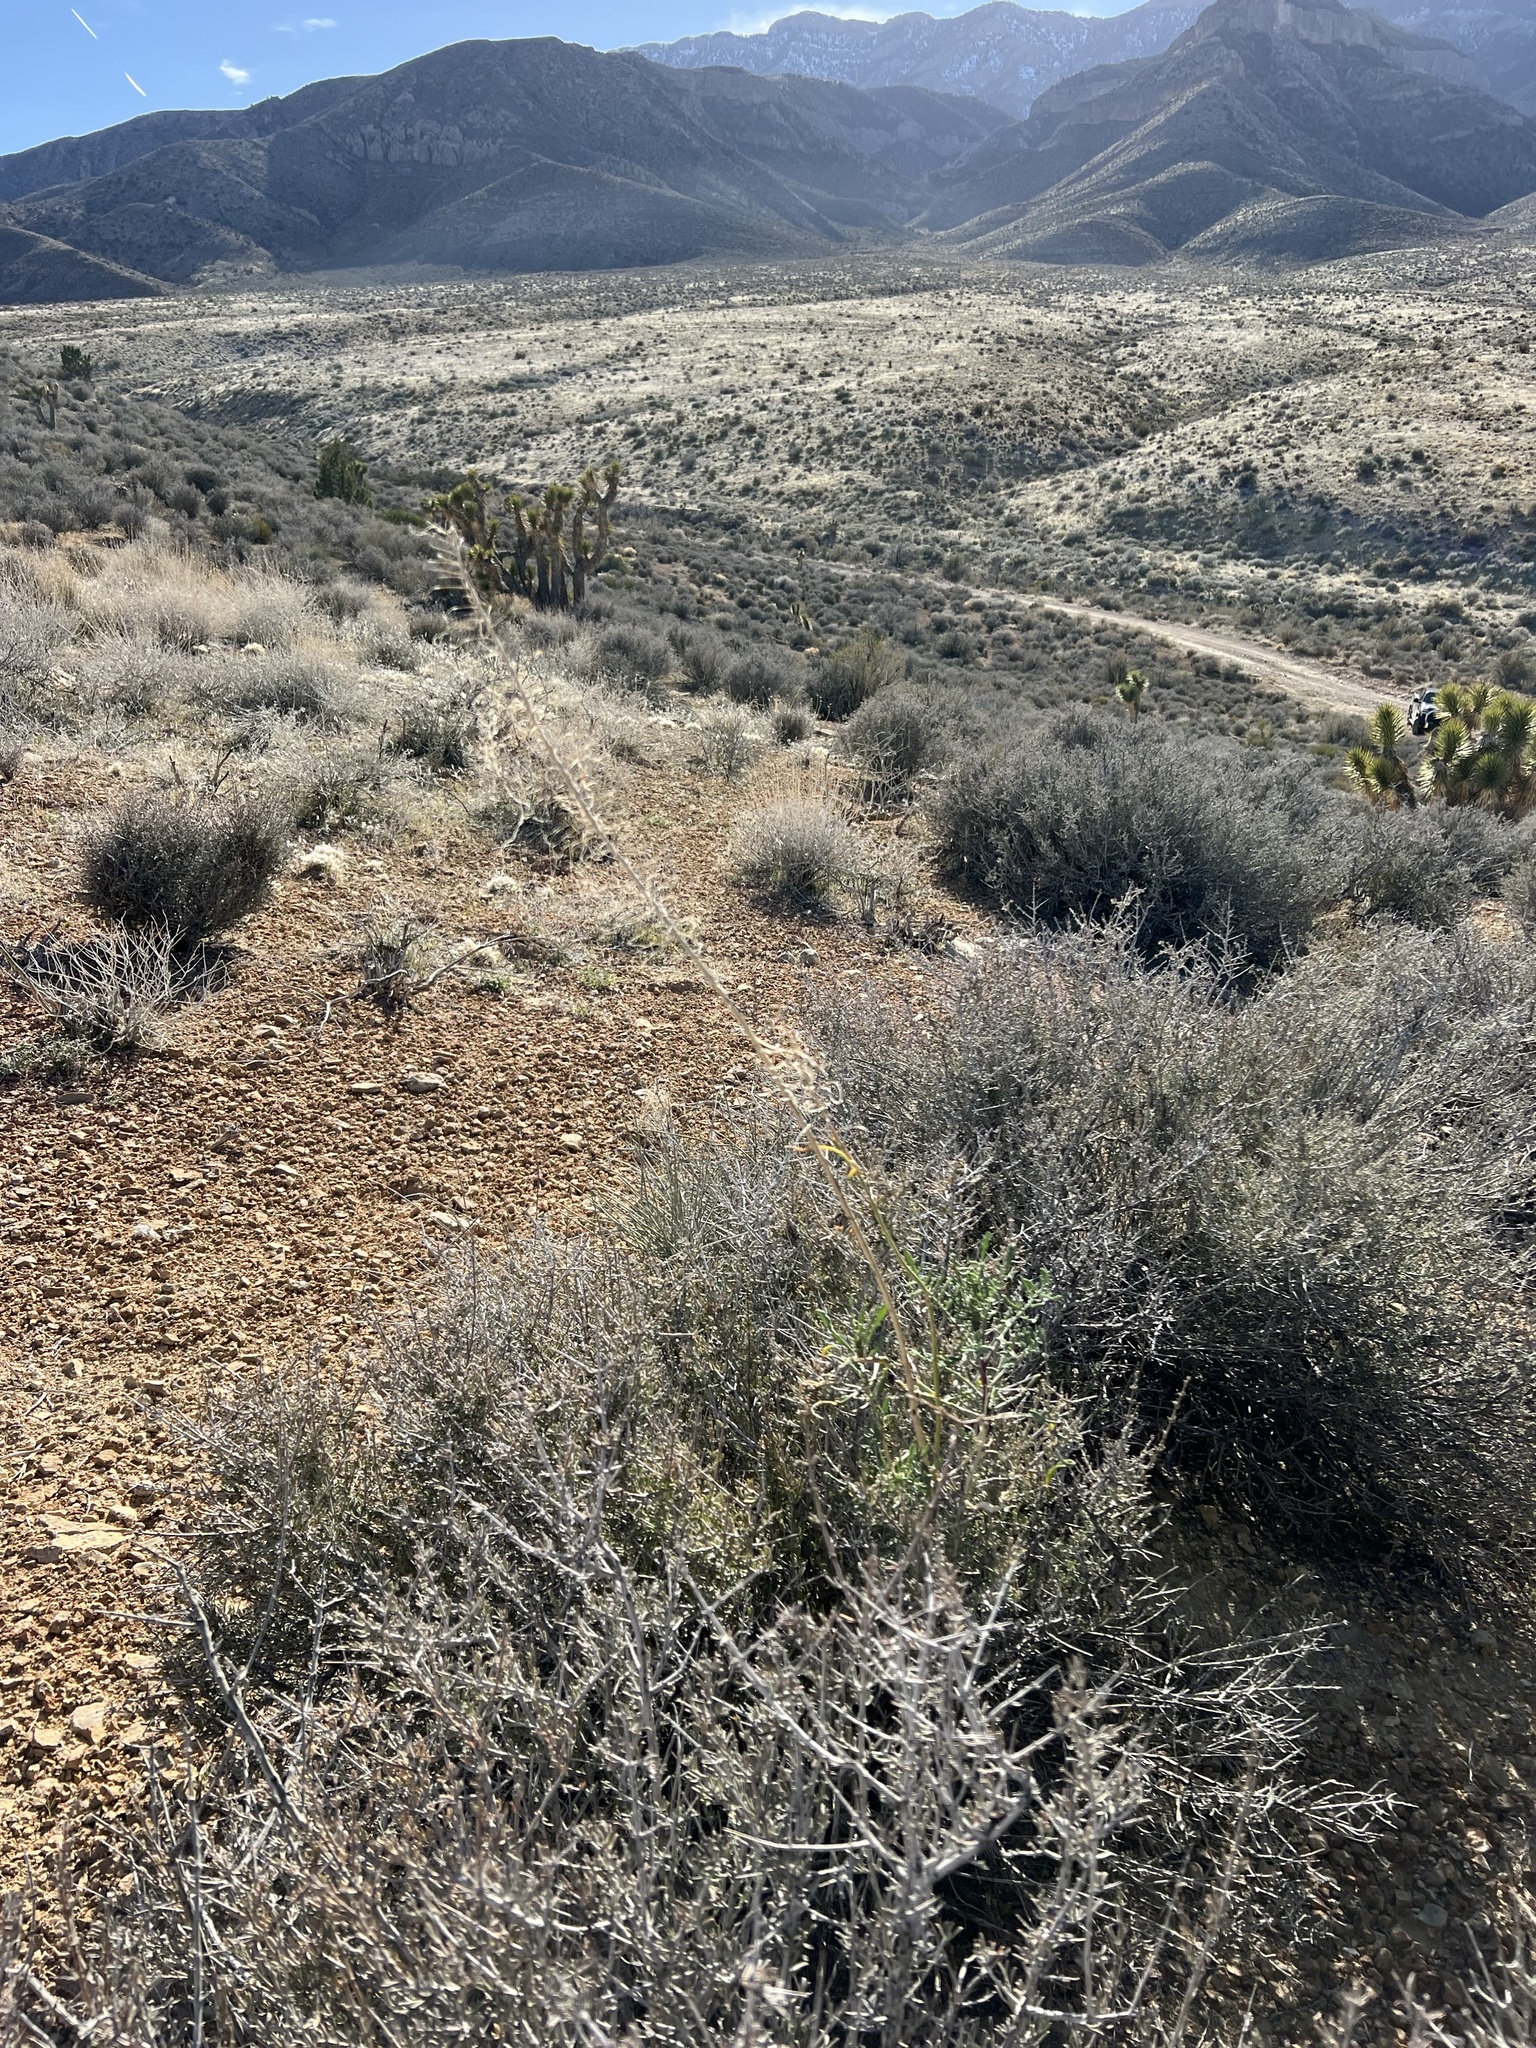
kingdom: Plantae
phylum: Tracheophyta
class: Magnoliopsida
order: Brassicales
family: Brassicaceae
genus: Stanleya
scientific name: Stanleya pinnata
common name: Prince's-plume
